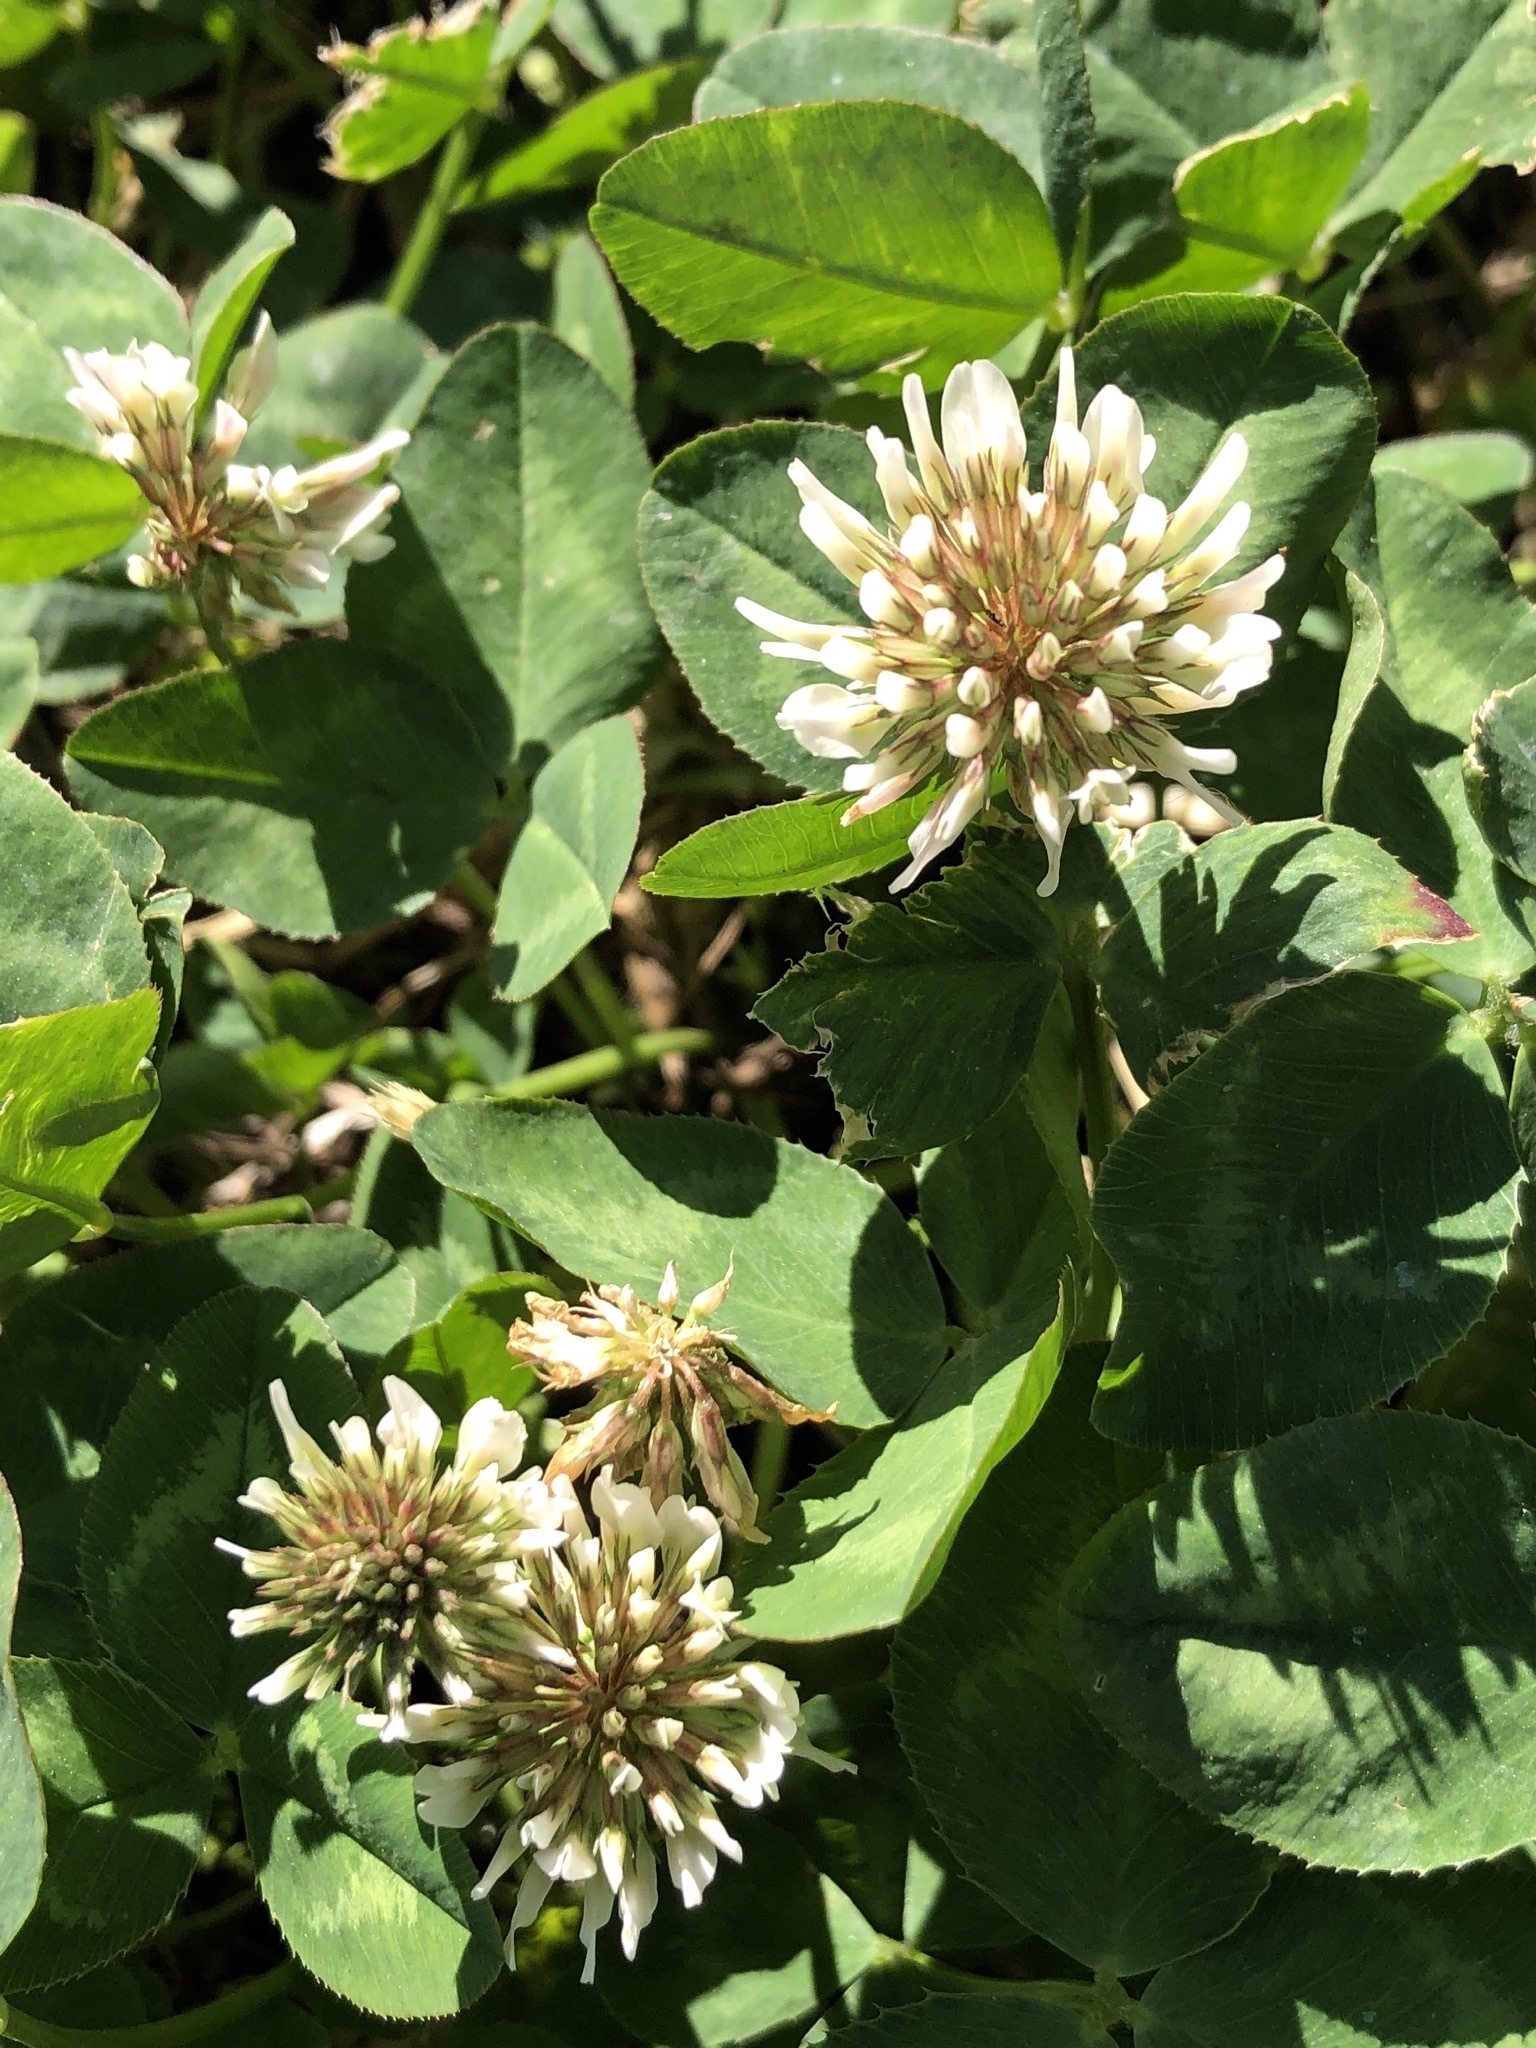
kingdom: Plantae
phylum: Tracheophyta
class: Magnoliopsida
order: Fabales
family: Fabaceae
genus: Trifolium
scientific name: Trifolium repens
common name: White clover
